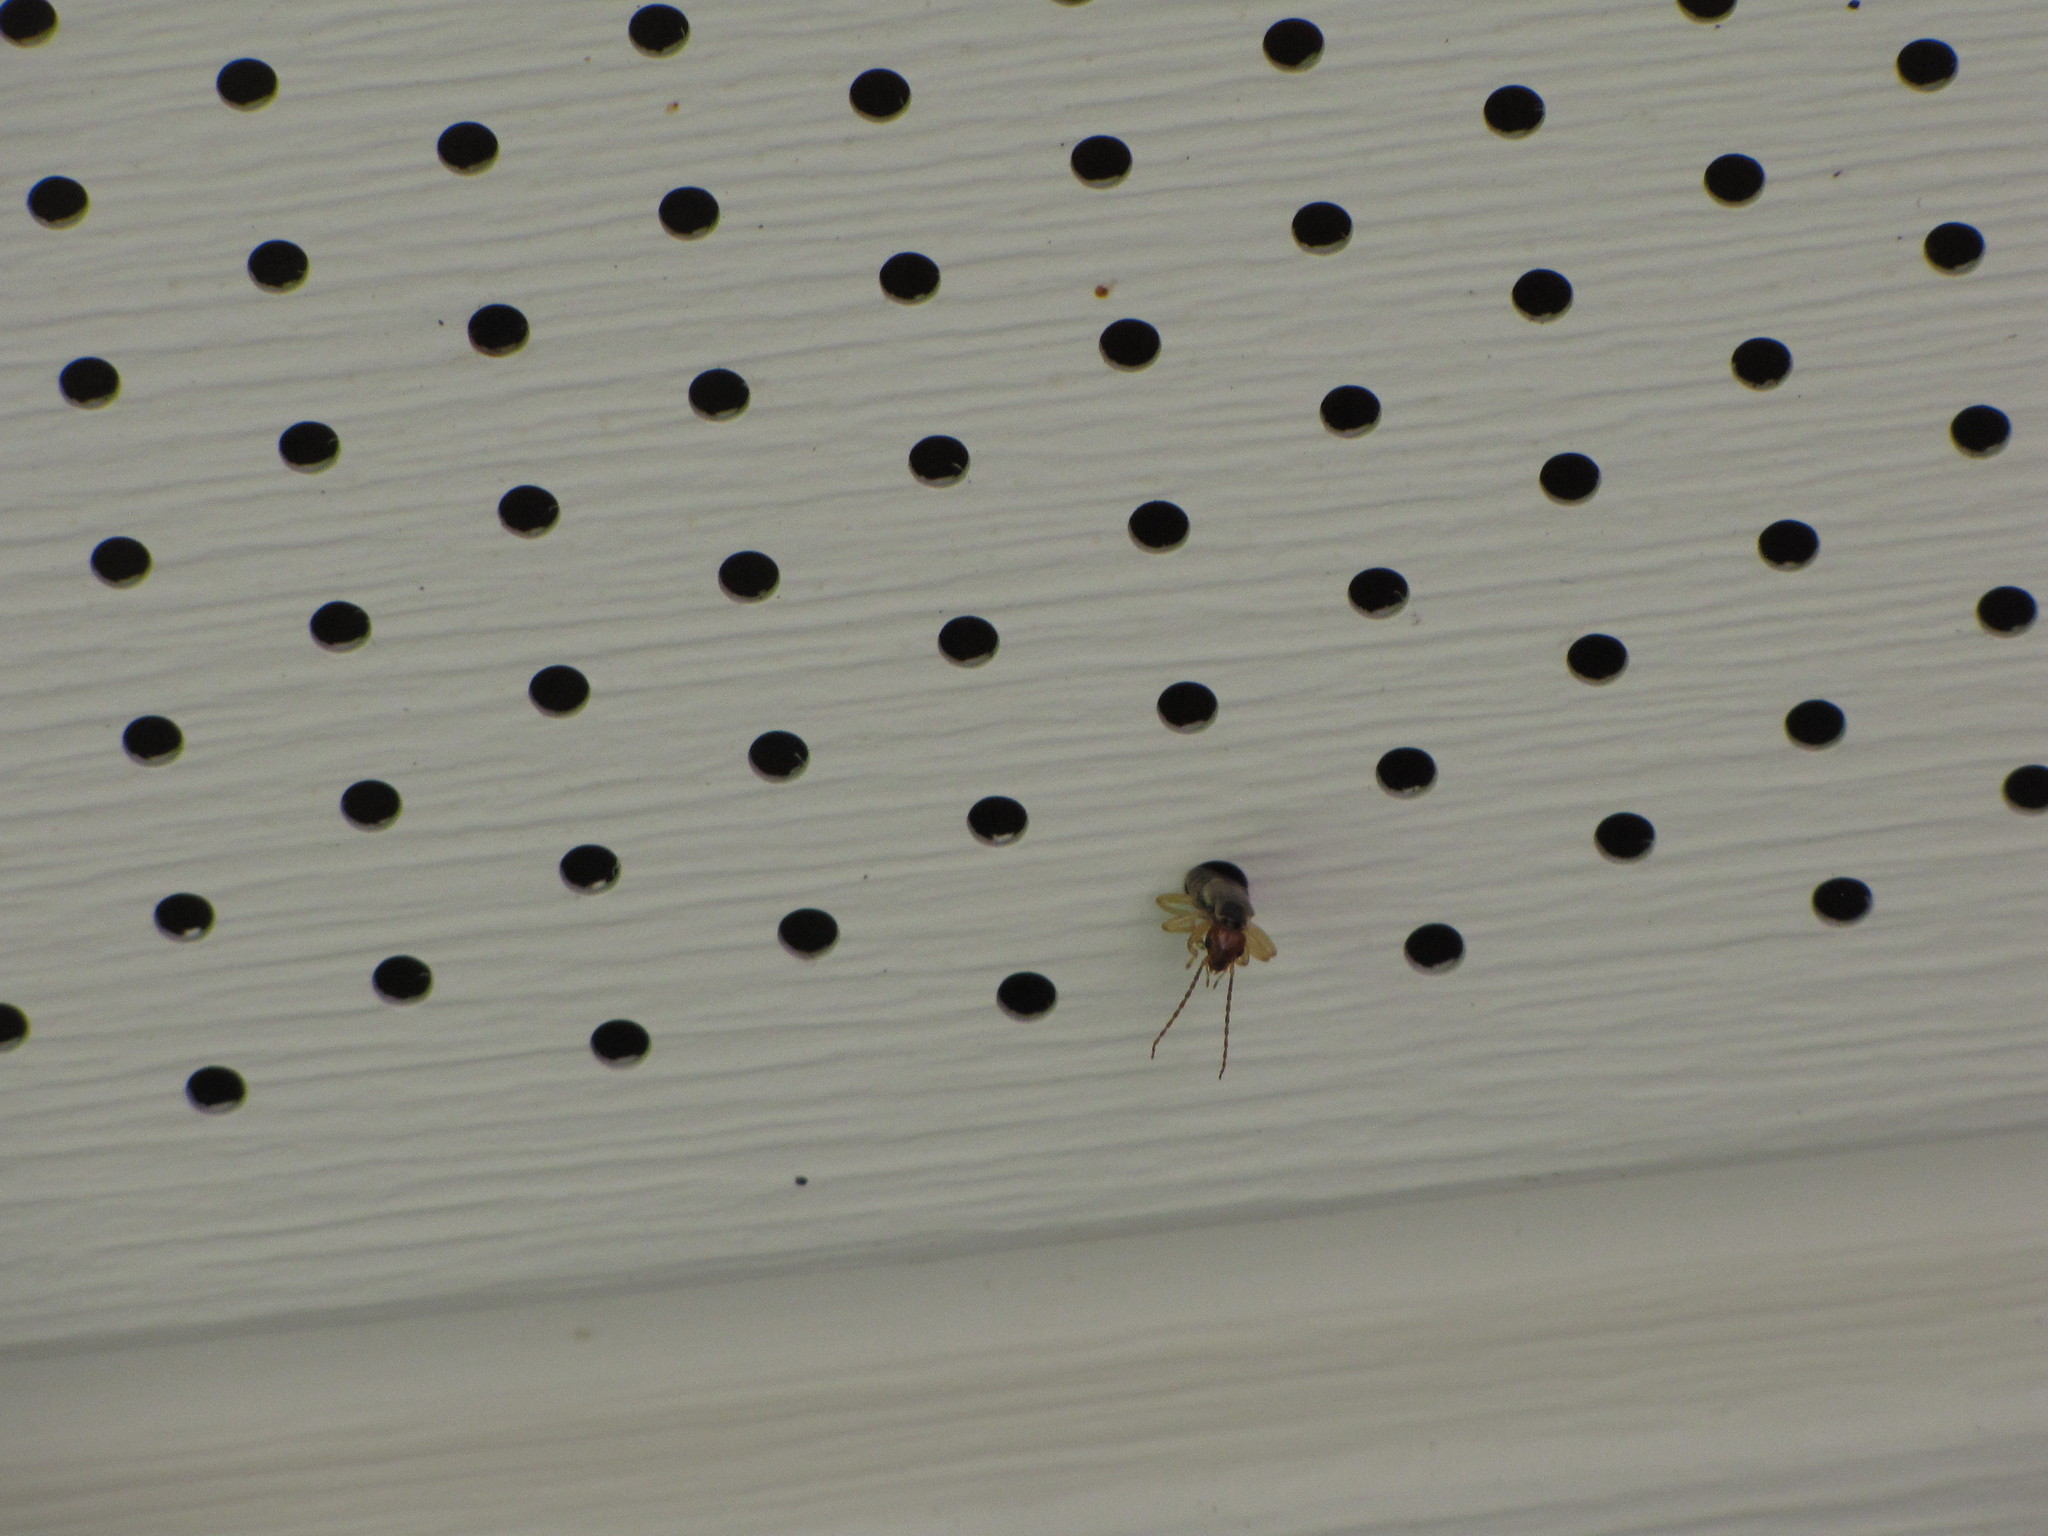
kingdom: Animalia
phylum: Arthropoda
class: Insecta
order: Dermaptera
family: Forficulidae
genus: Forficula
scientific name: Forficula
